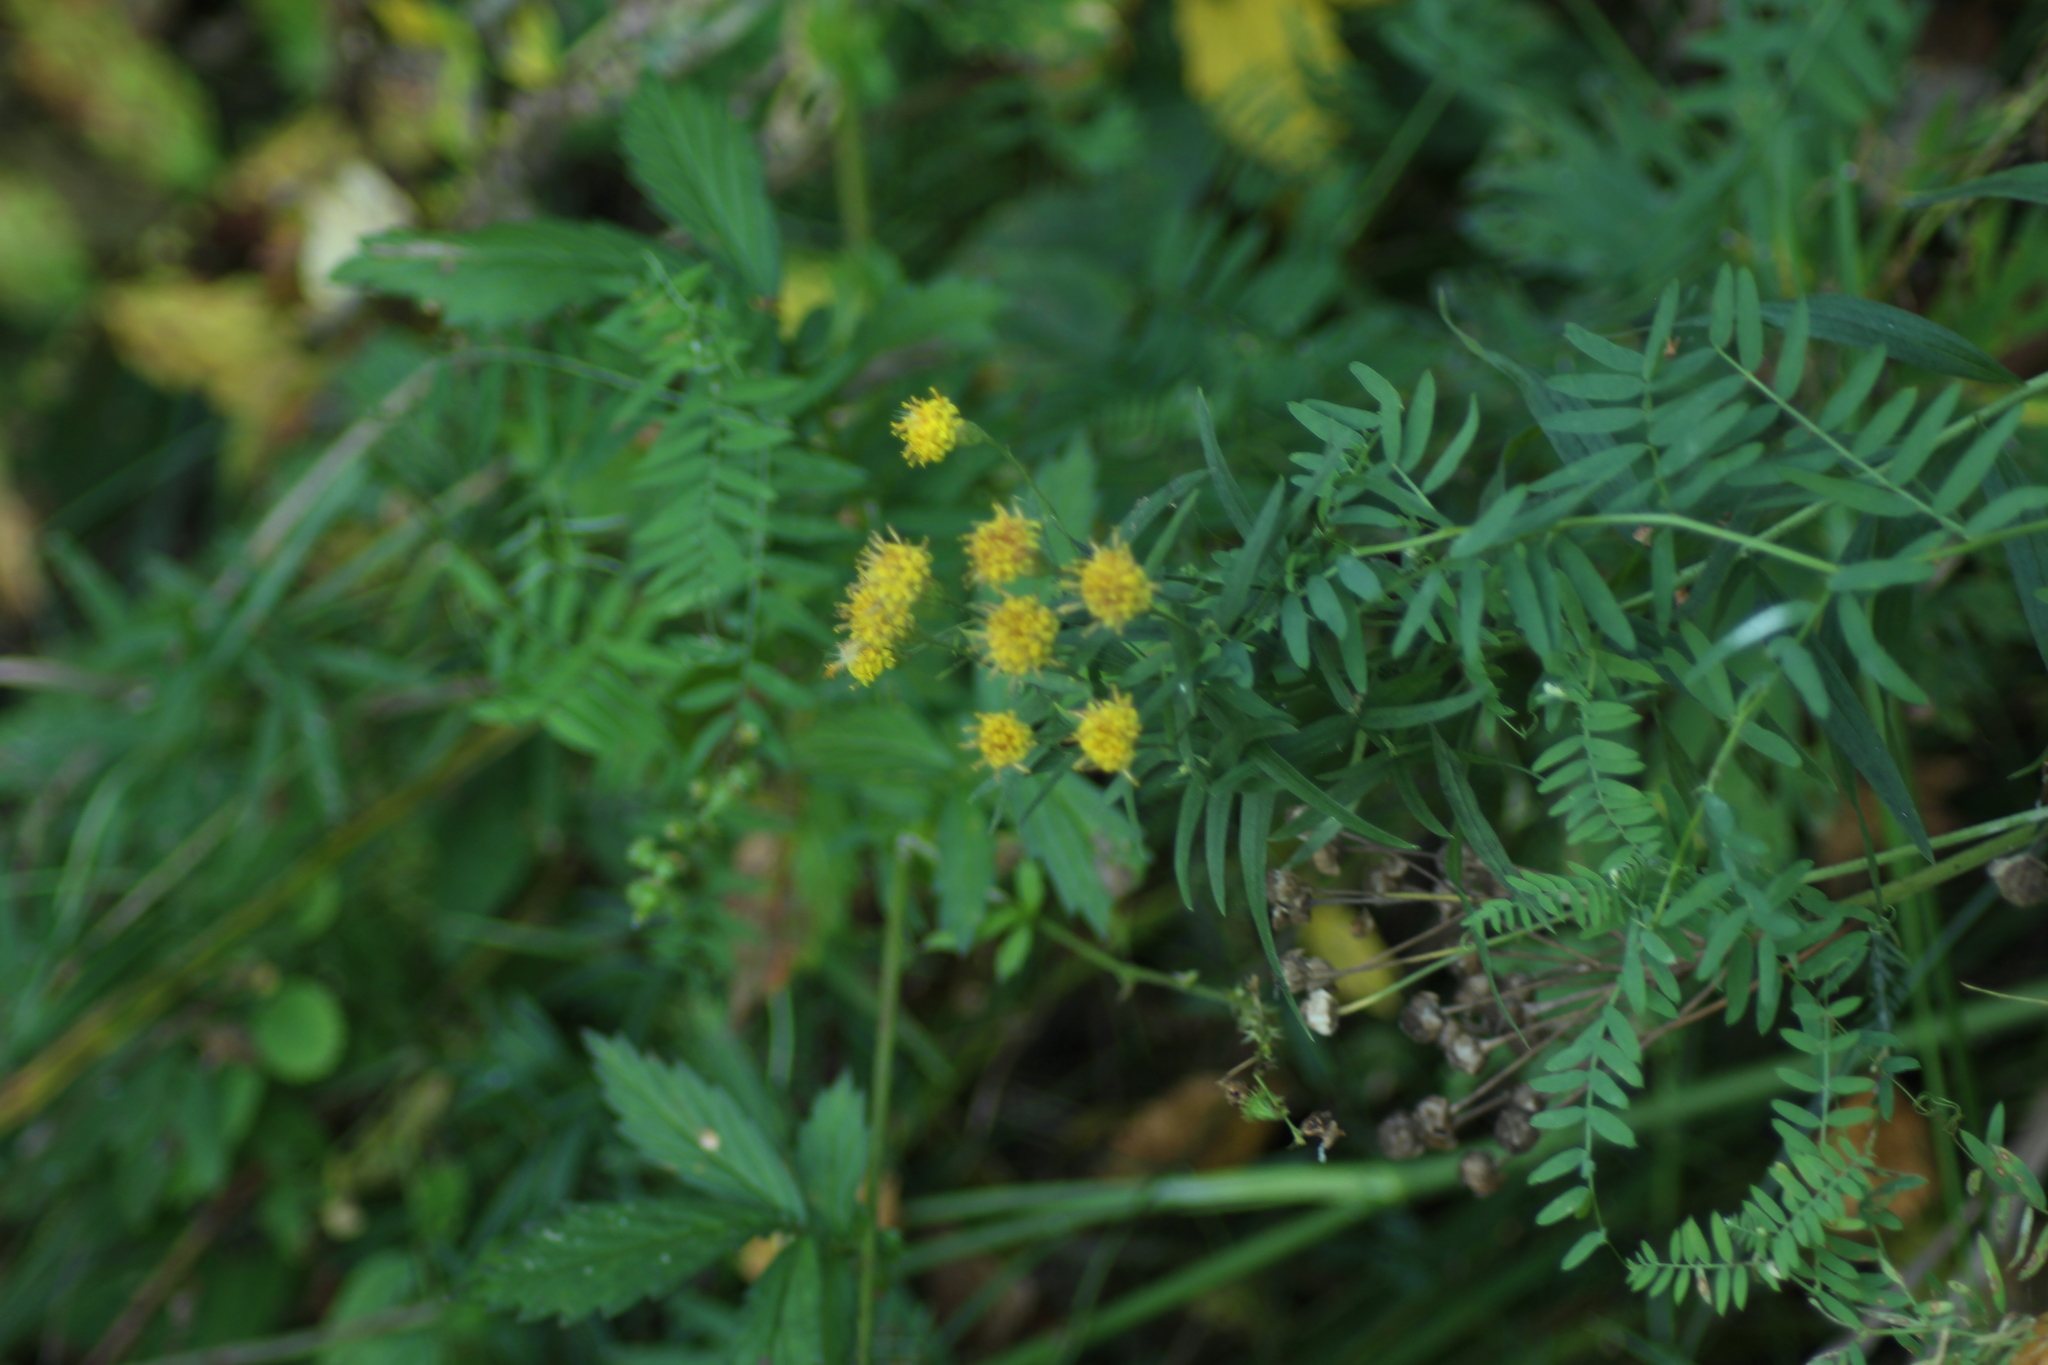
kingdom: Plantae
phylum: Tracheophyta
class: Magnoliopsida
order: Asterales
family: Asteraceae
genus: Galatella
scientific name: Galatella biflora
